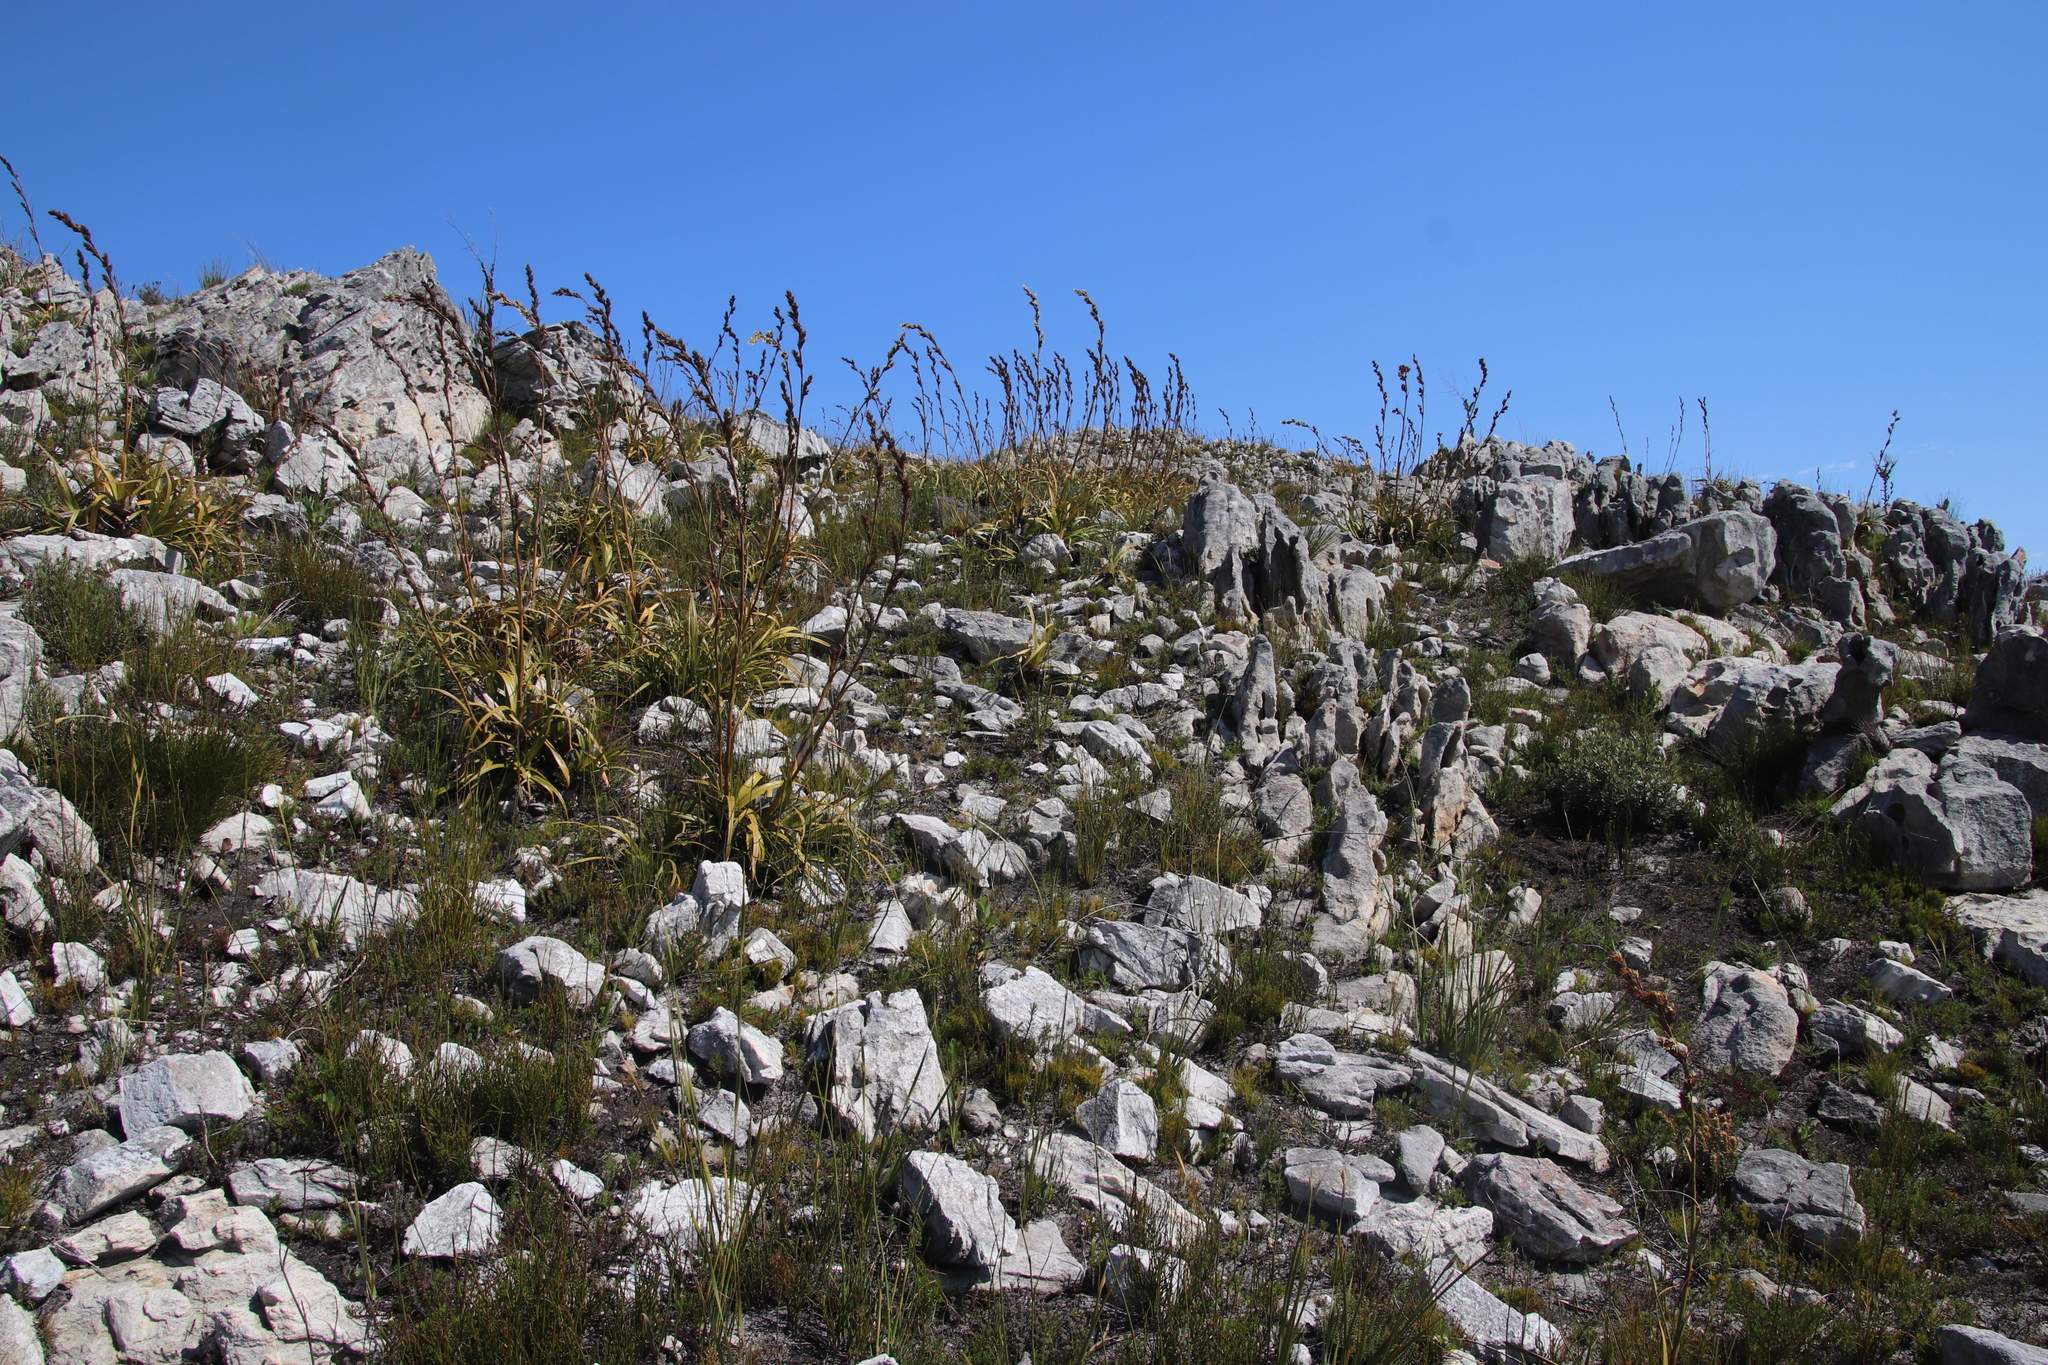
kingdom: Plantae
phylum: Tracheophyta
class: Liliopsida
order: Poales
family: Cyperaceae
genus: Tetraria
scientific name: Tetraria thermalis
